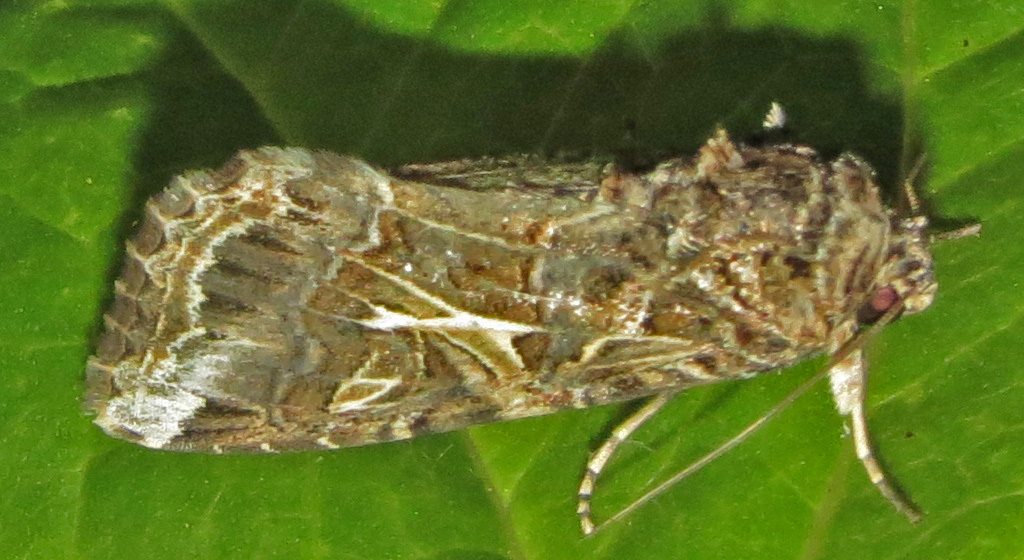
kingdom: Animalia
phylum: Arthropoda
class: Insecta
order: Lepidoptera
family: Noctuidae
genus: Spodoptera
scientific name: Spodoptera ornithogalli
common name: Yellow-striped armyworm
